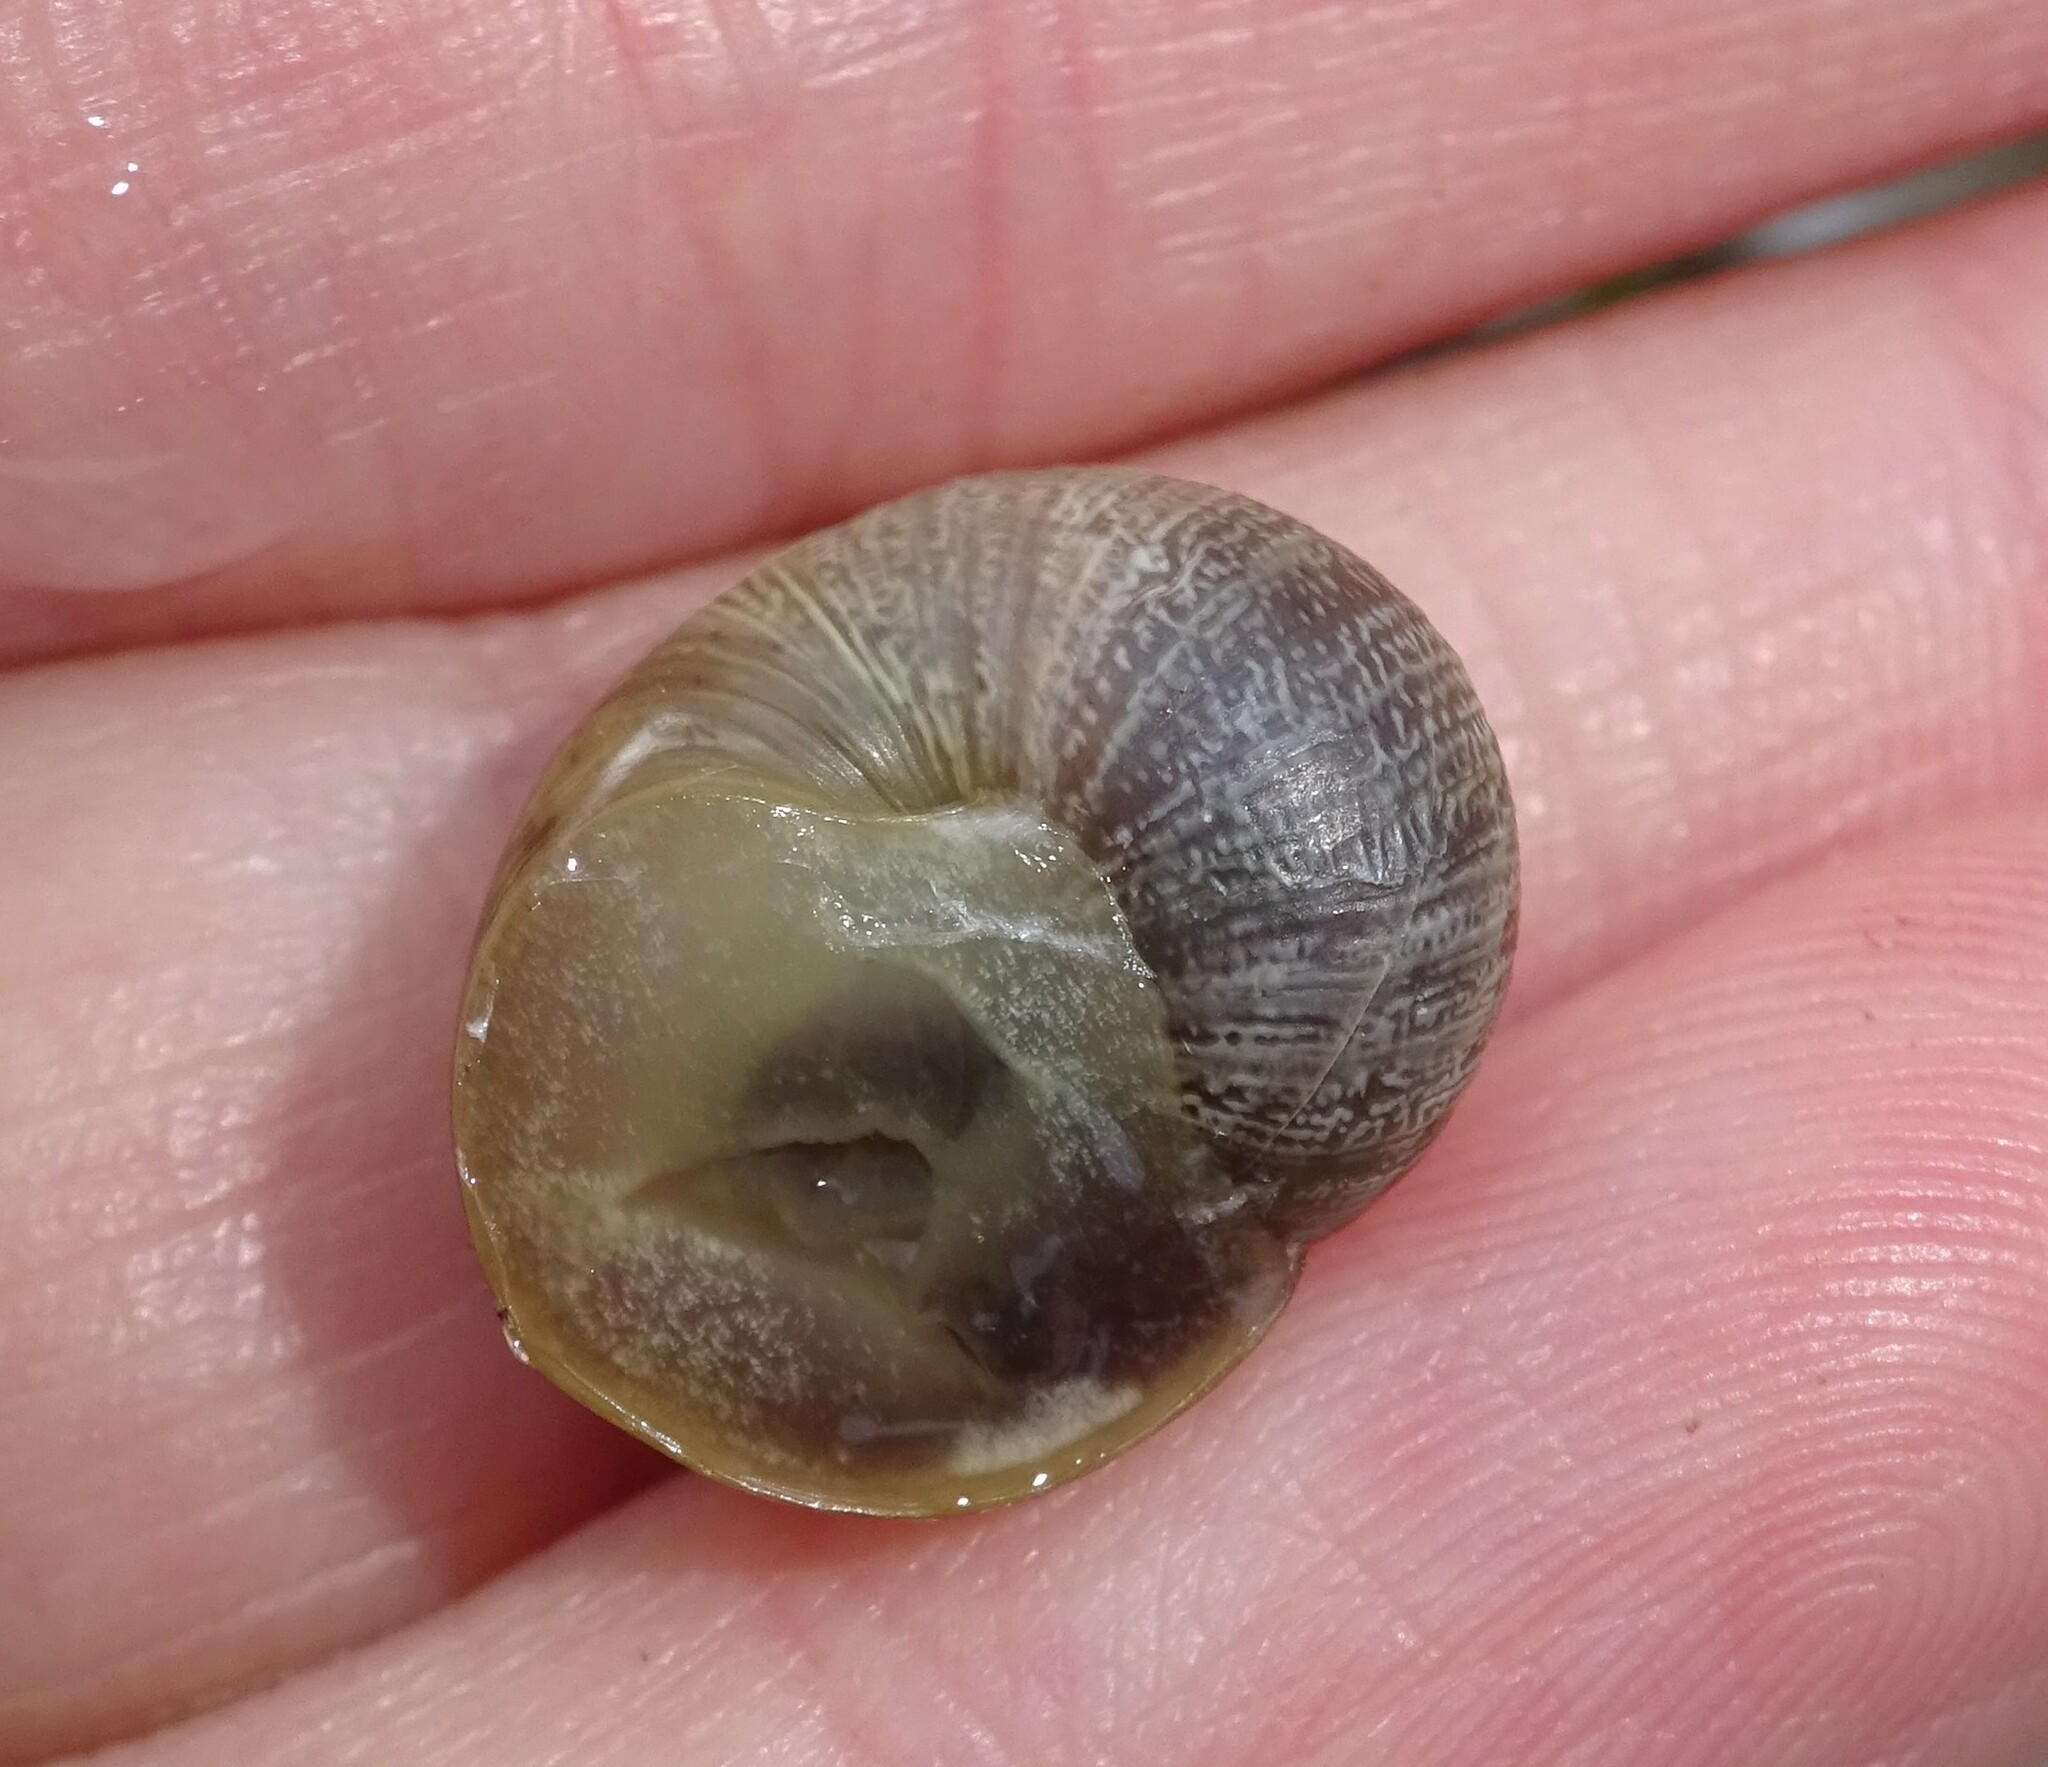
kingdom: Animalia
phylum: Mollusca
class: Gastropoda
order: Stylommatophora
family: Helicidae
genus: Cornu
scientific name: Cornu aspersum
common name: Brown garden snail
